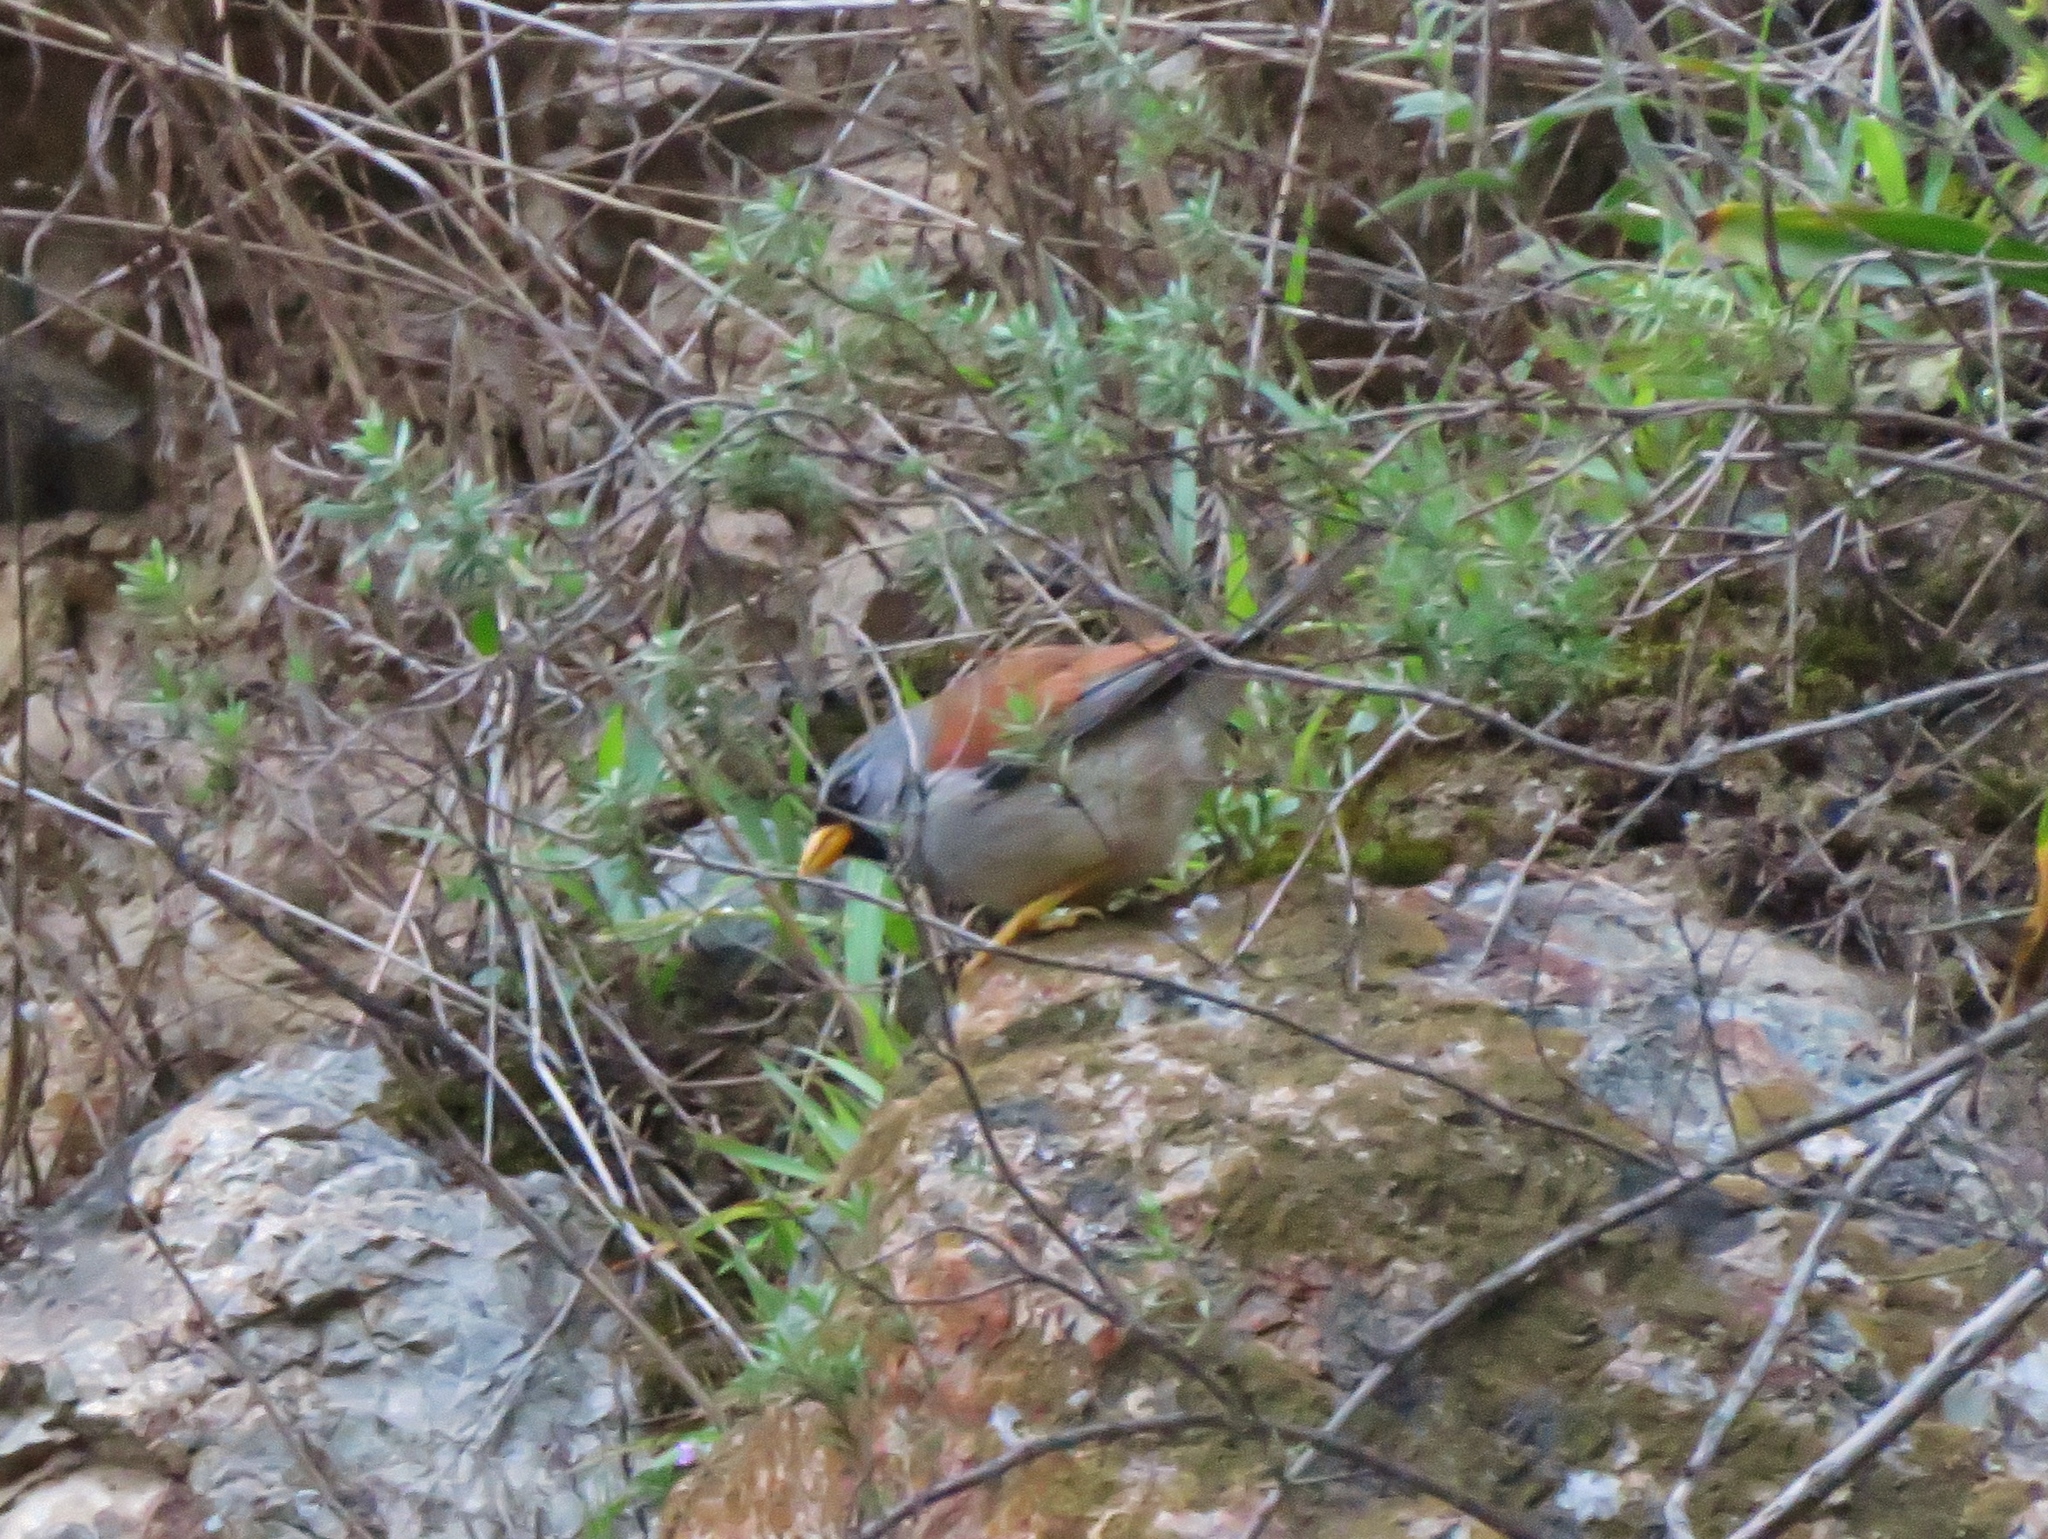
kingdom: Animalia
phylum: Chordata
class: Aves
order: Passeriformes
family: Thraupidae
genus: Incaspiza
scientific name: Incaspiza pulchra
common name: Great inca finch
